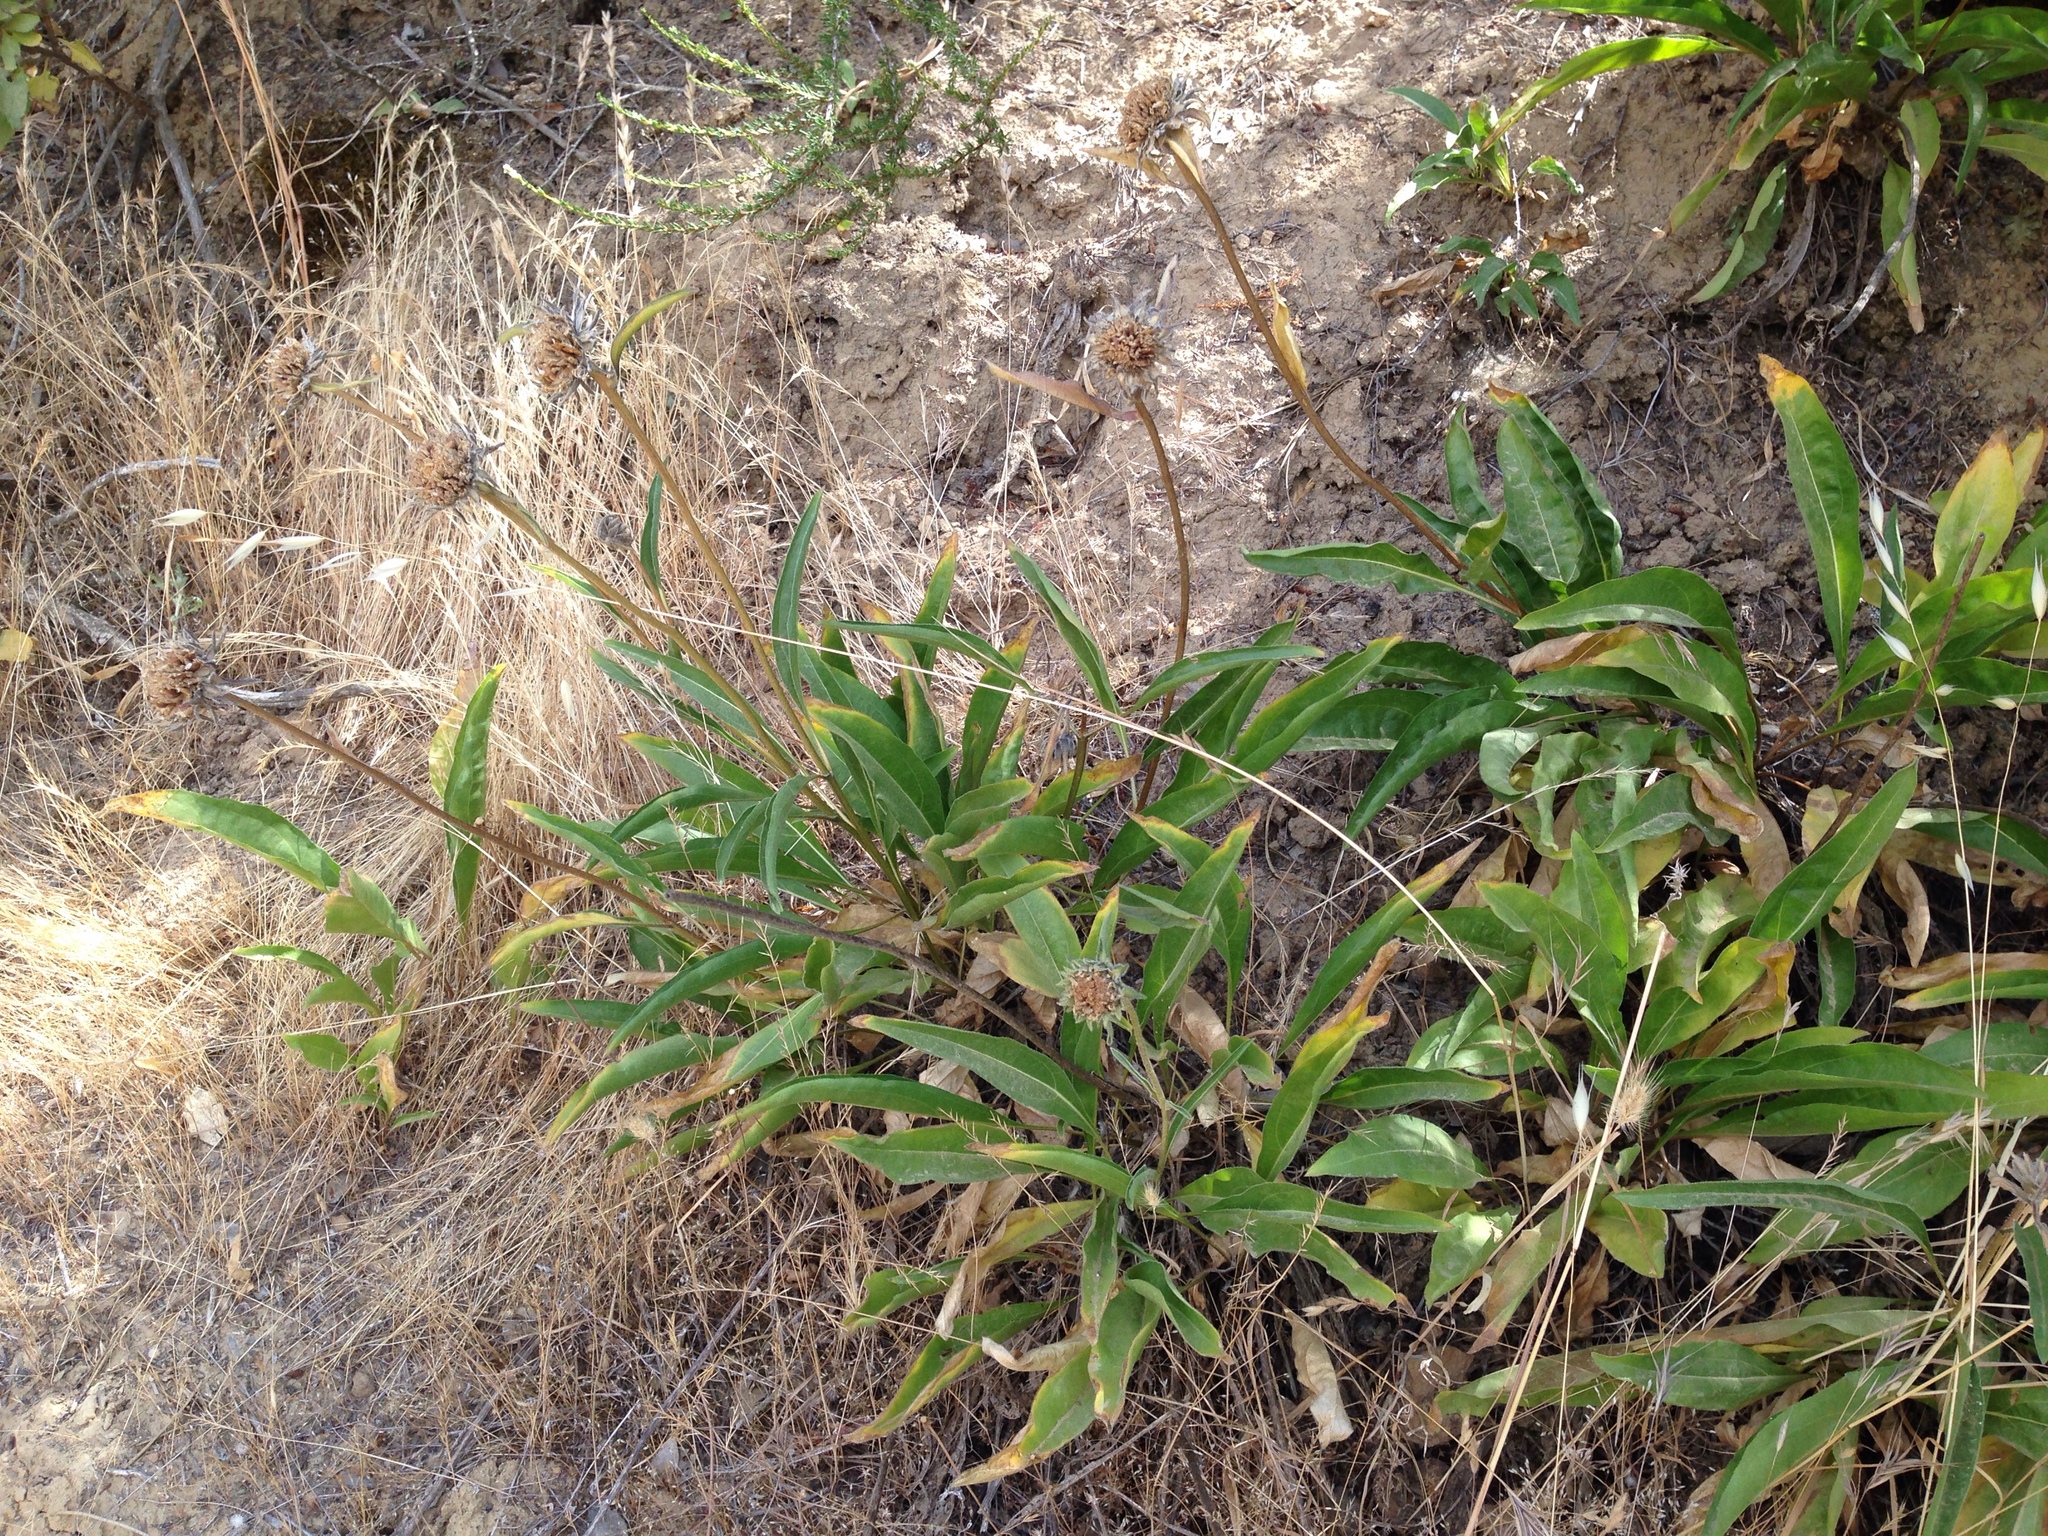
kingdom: Plantae
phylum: Tracheophyta
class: Magnoliopsida
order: Asterales
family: Asteraceae
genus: Helianthella
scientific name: Helianthella castanea
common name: Diablo helianthella
